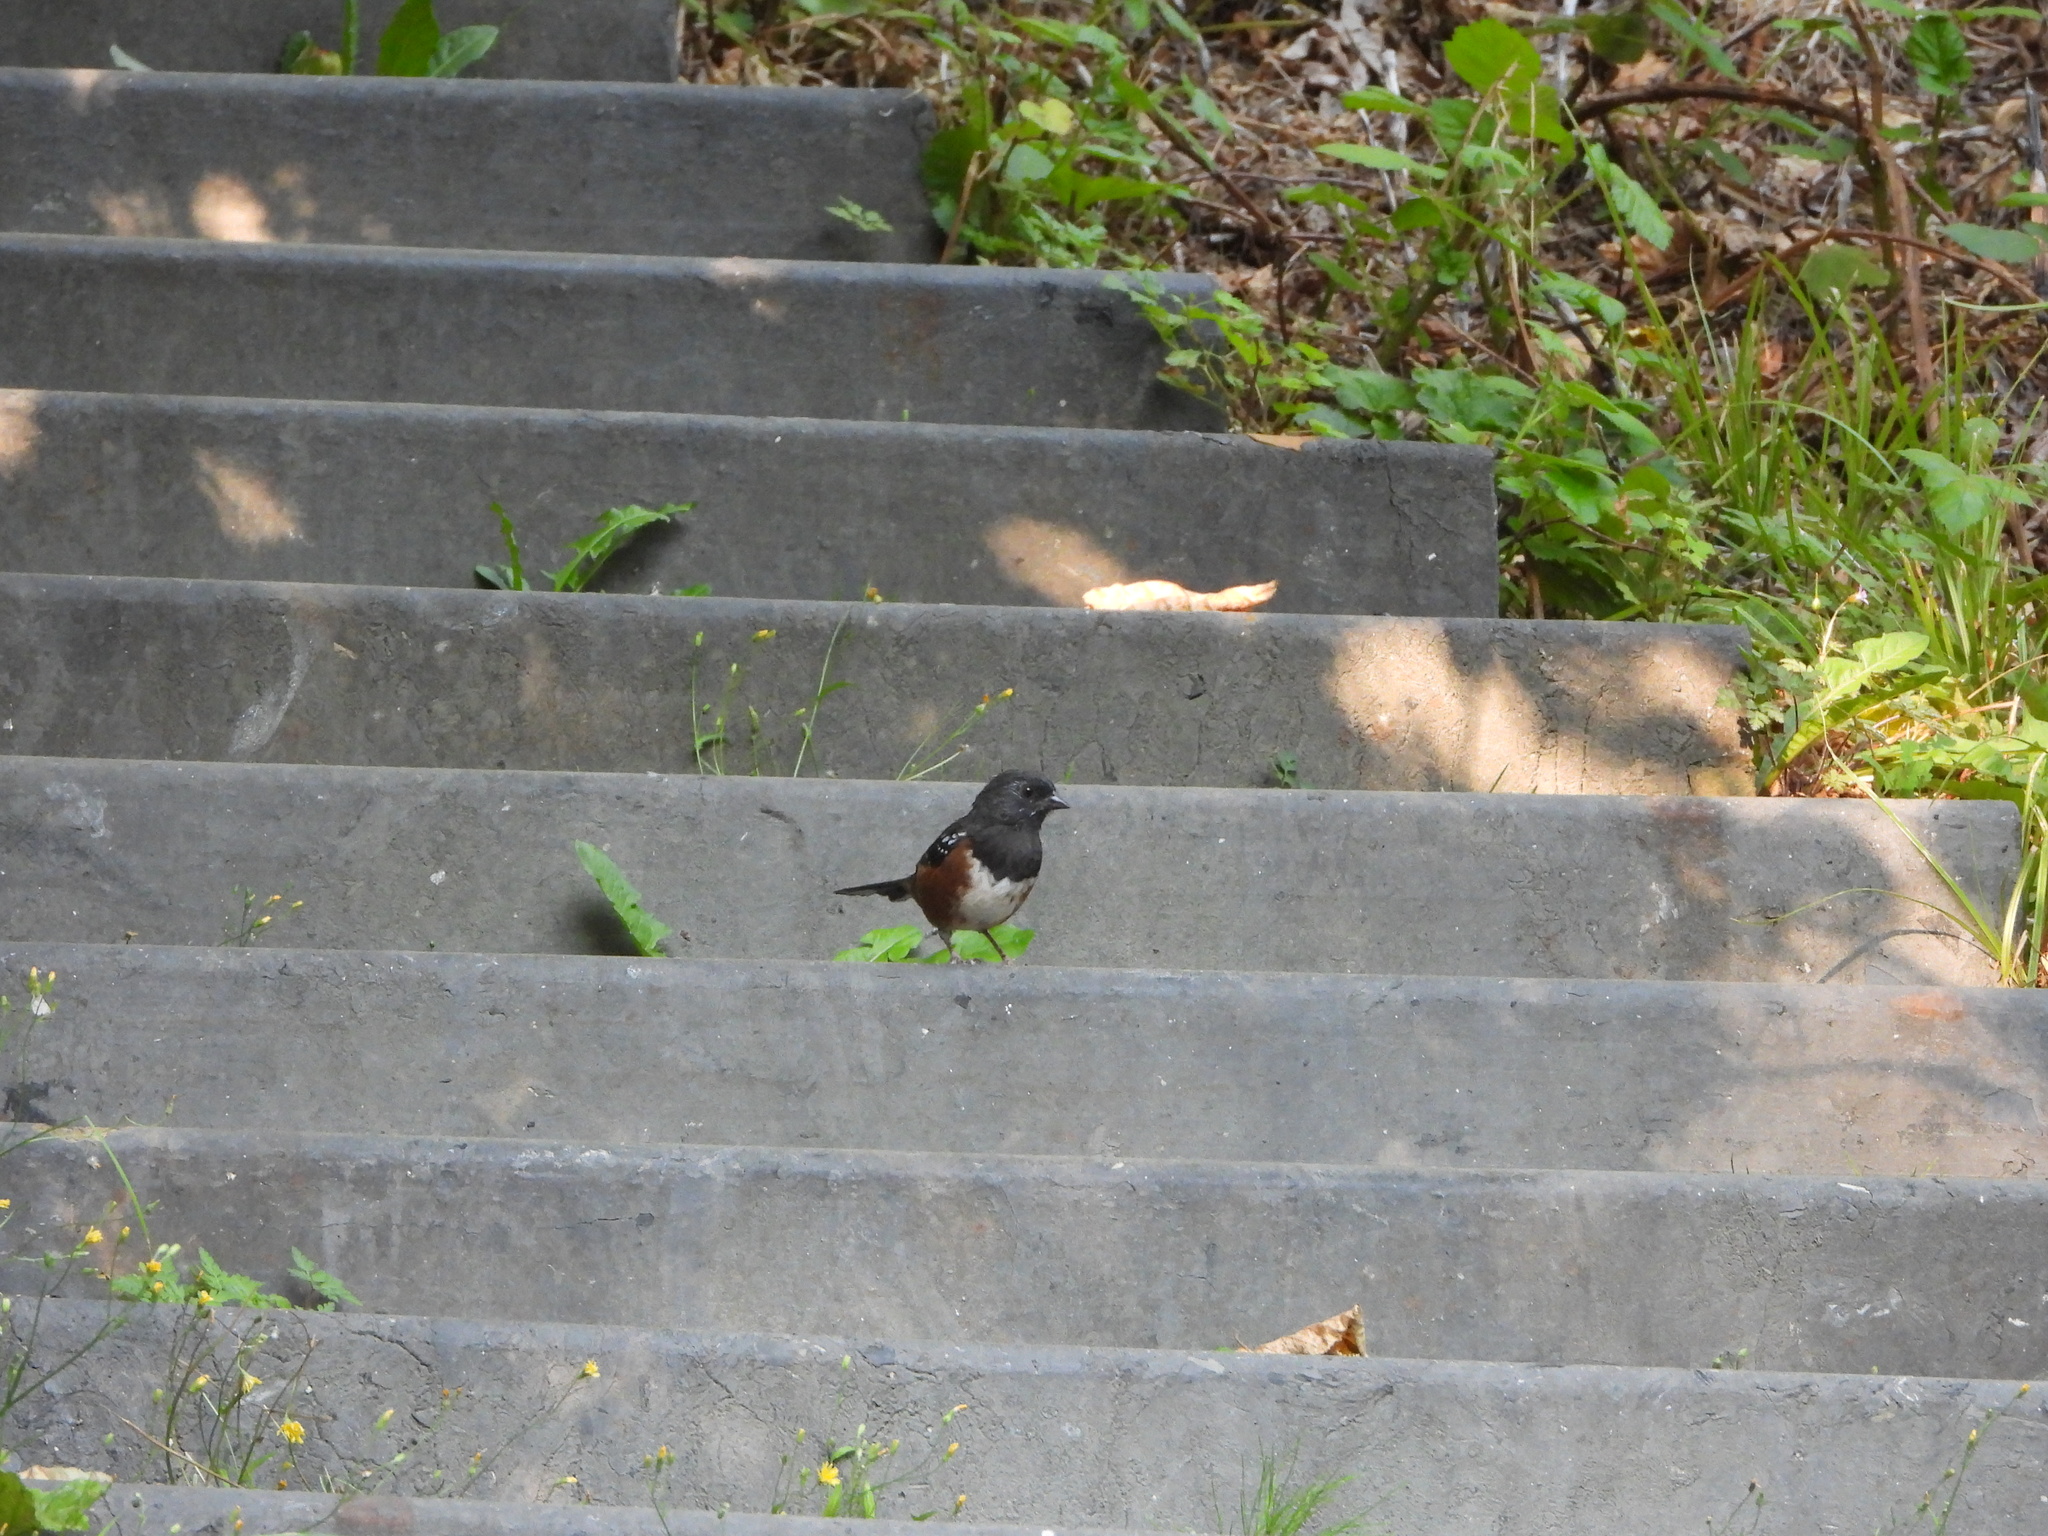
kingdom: Animalia
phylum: Chordata
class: Aves
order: Passeriformes
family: Passerellidae
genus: Pipilo
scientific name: Pipilo maculatus
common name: Spotted towhee
